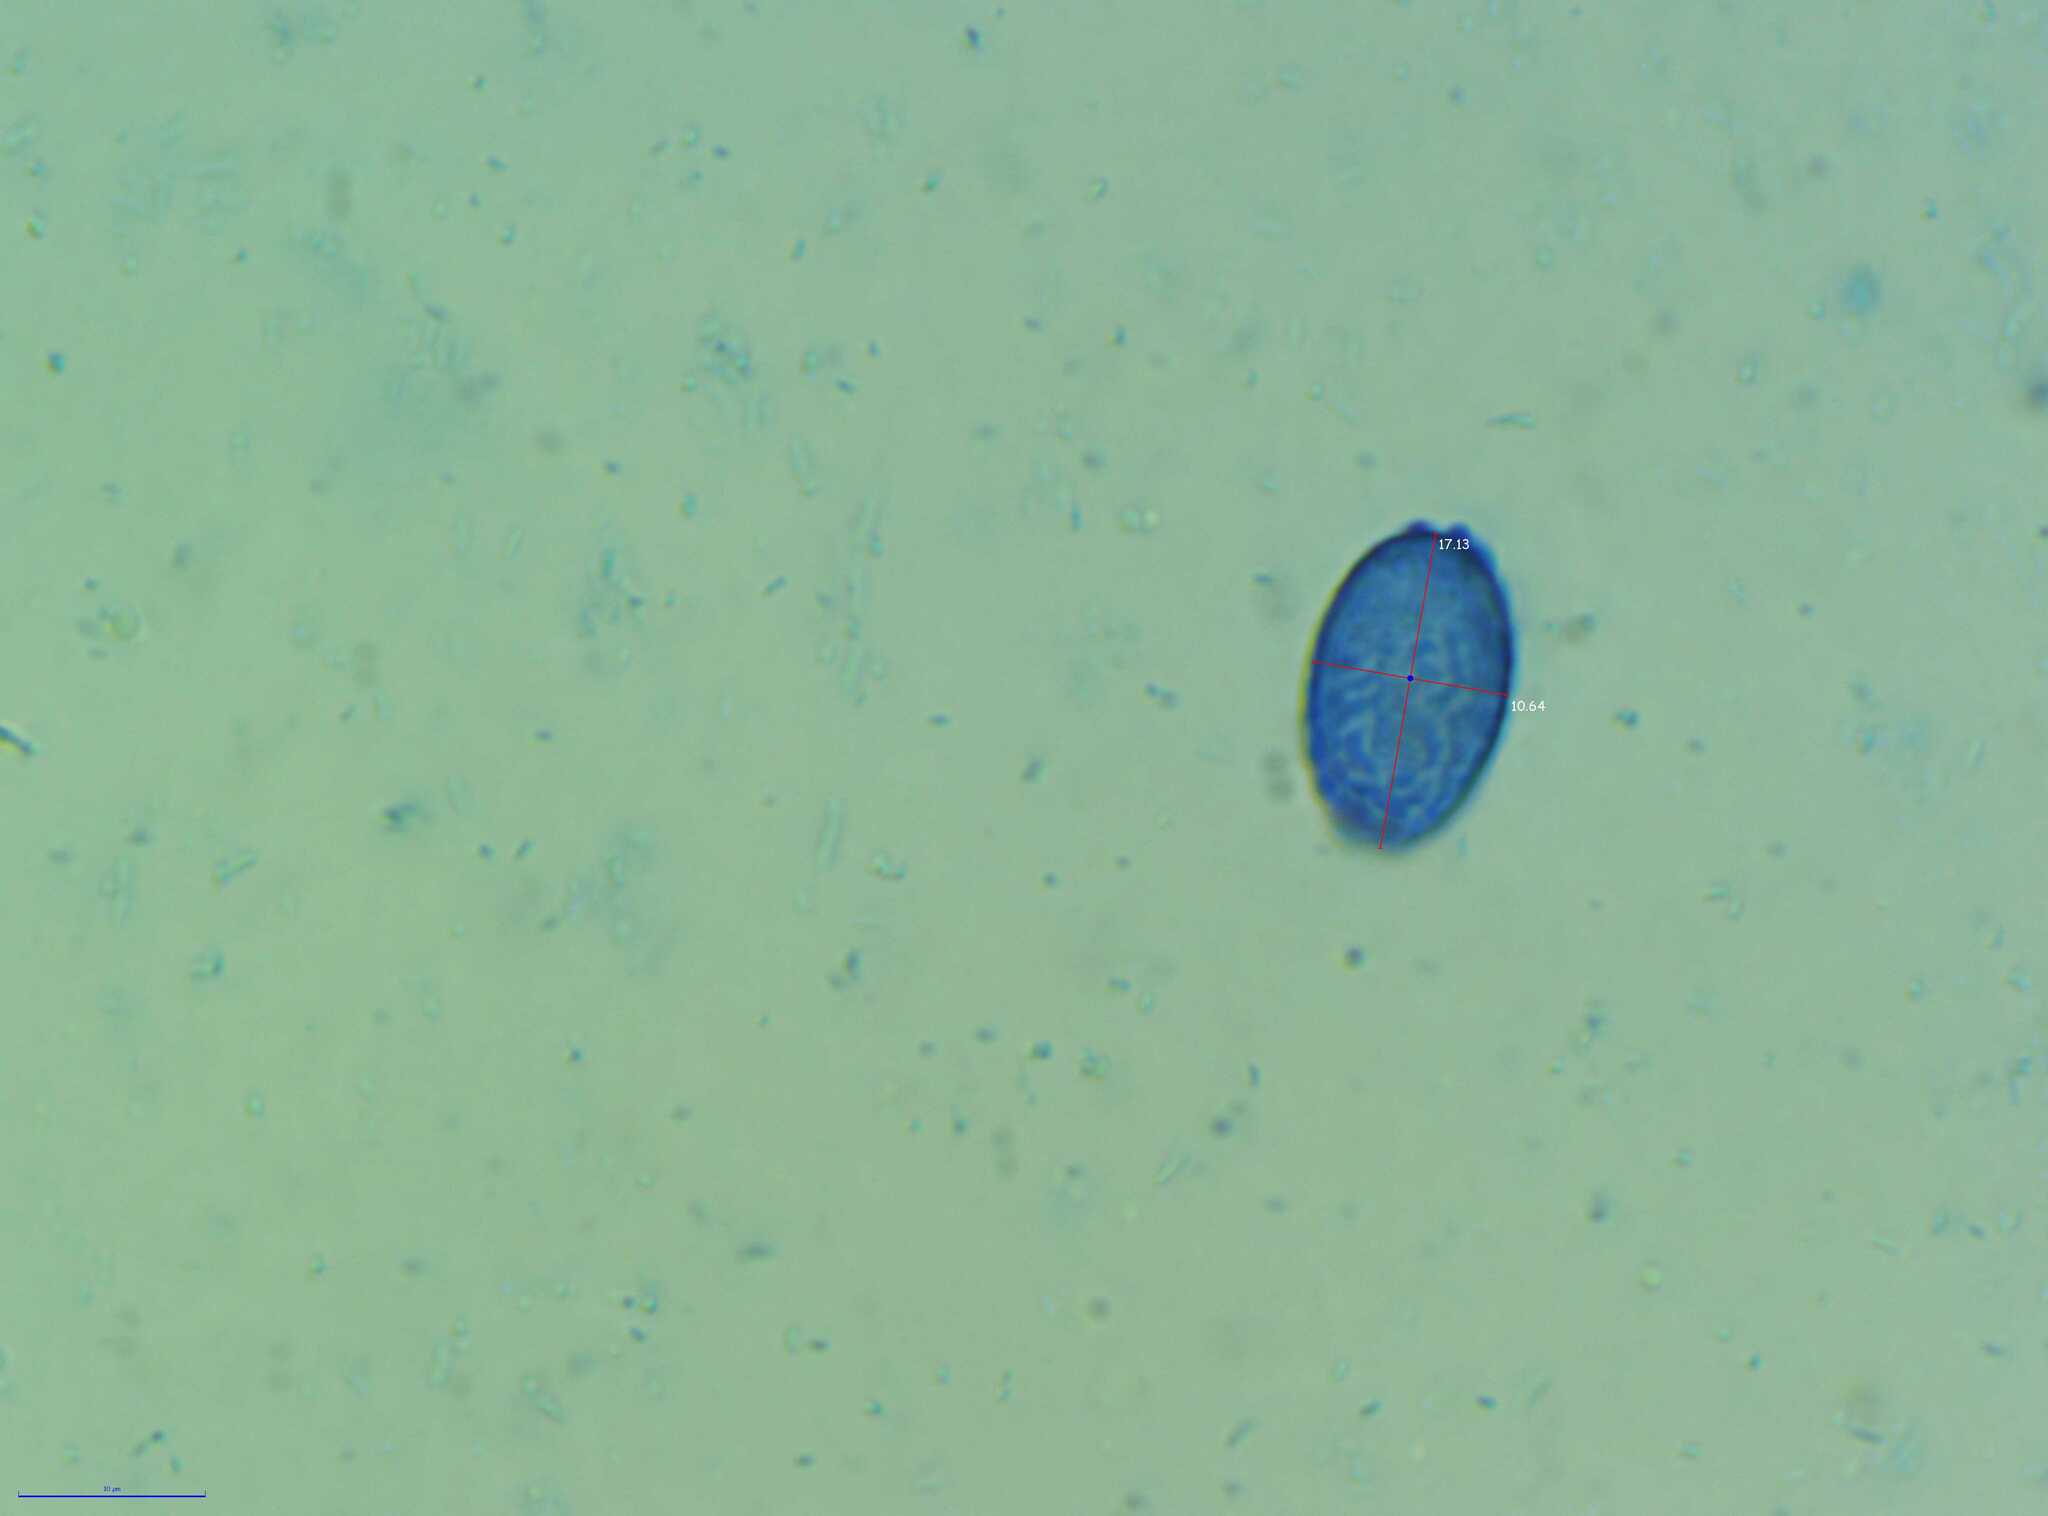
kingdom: Fungi
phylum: Ascomycota
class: Pezizomycetes
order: Pezizales
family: Pyronemataceae
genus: Scutellinia
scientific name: Scutellinia colensoi
